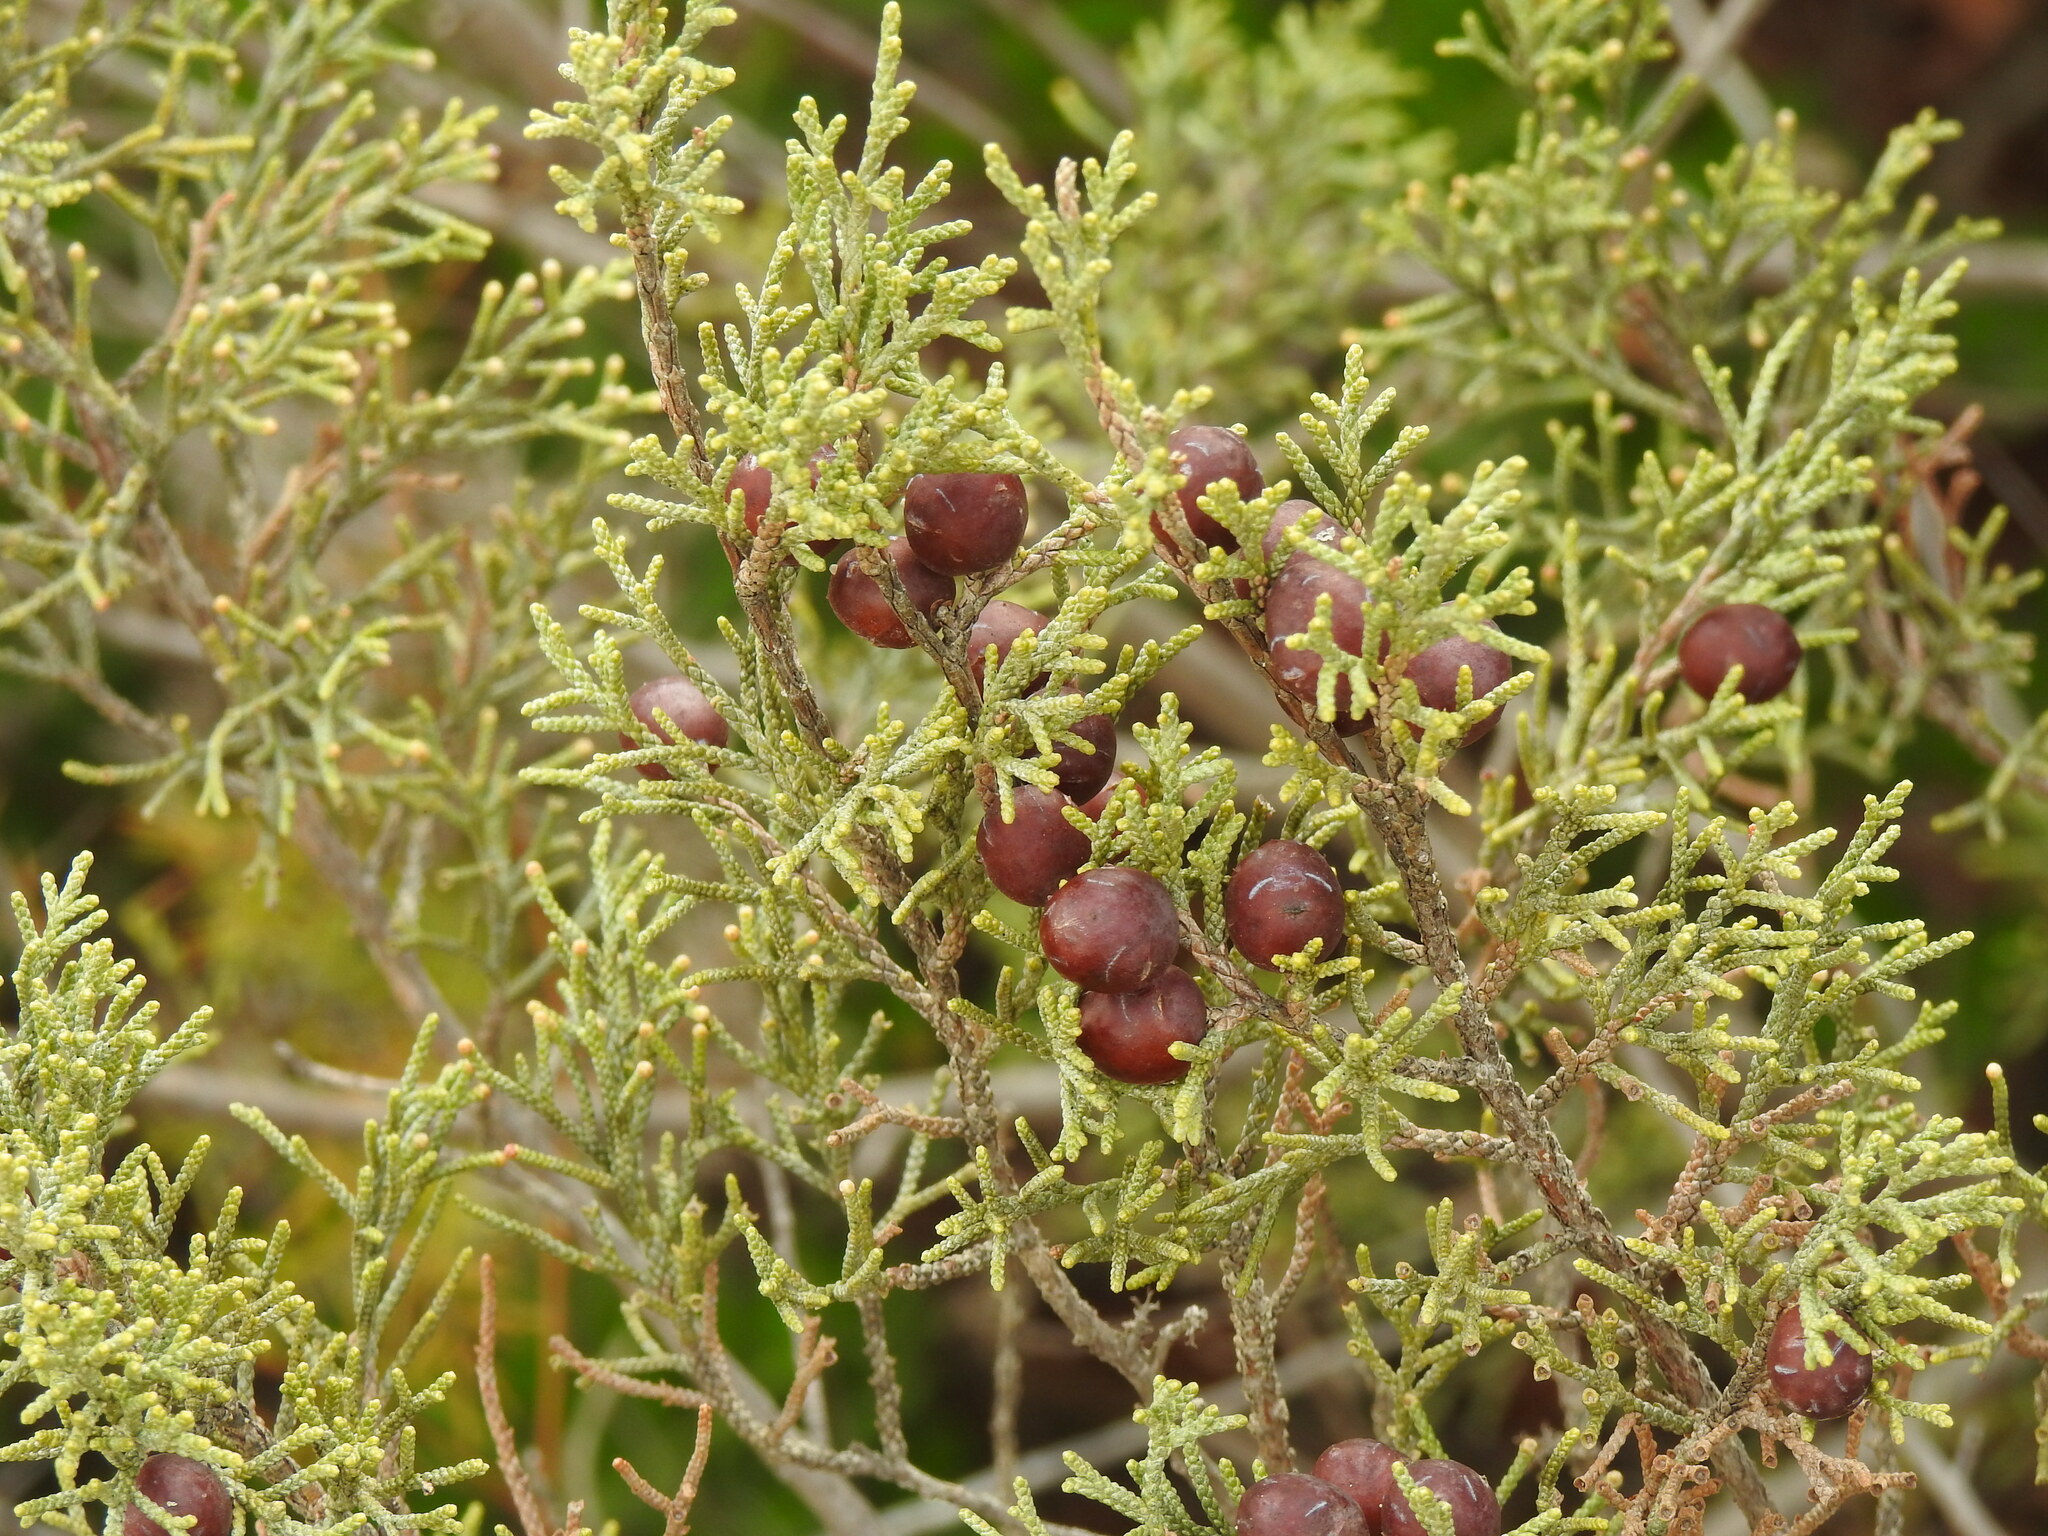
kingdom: Plantae
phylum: Tracheophyta
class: Pinopsida
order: Pinales
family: Cupressaceae
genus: Juniperus
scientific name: Juniperus phoenicea
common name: Phoenician juniper
